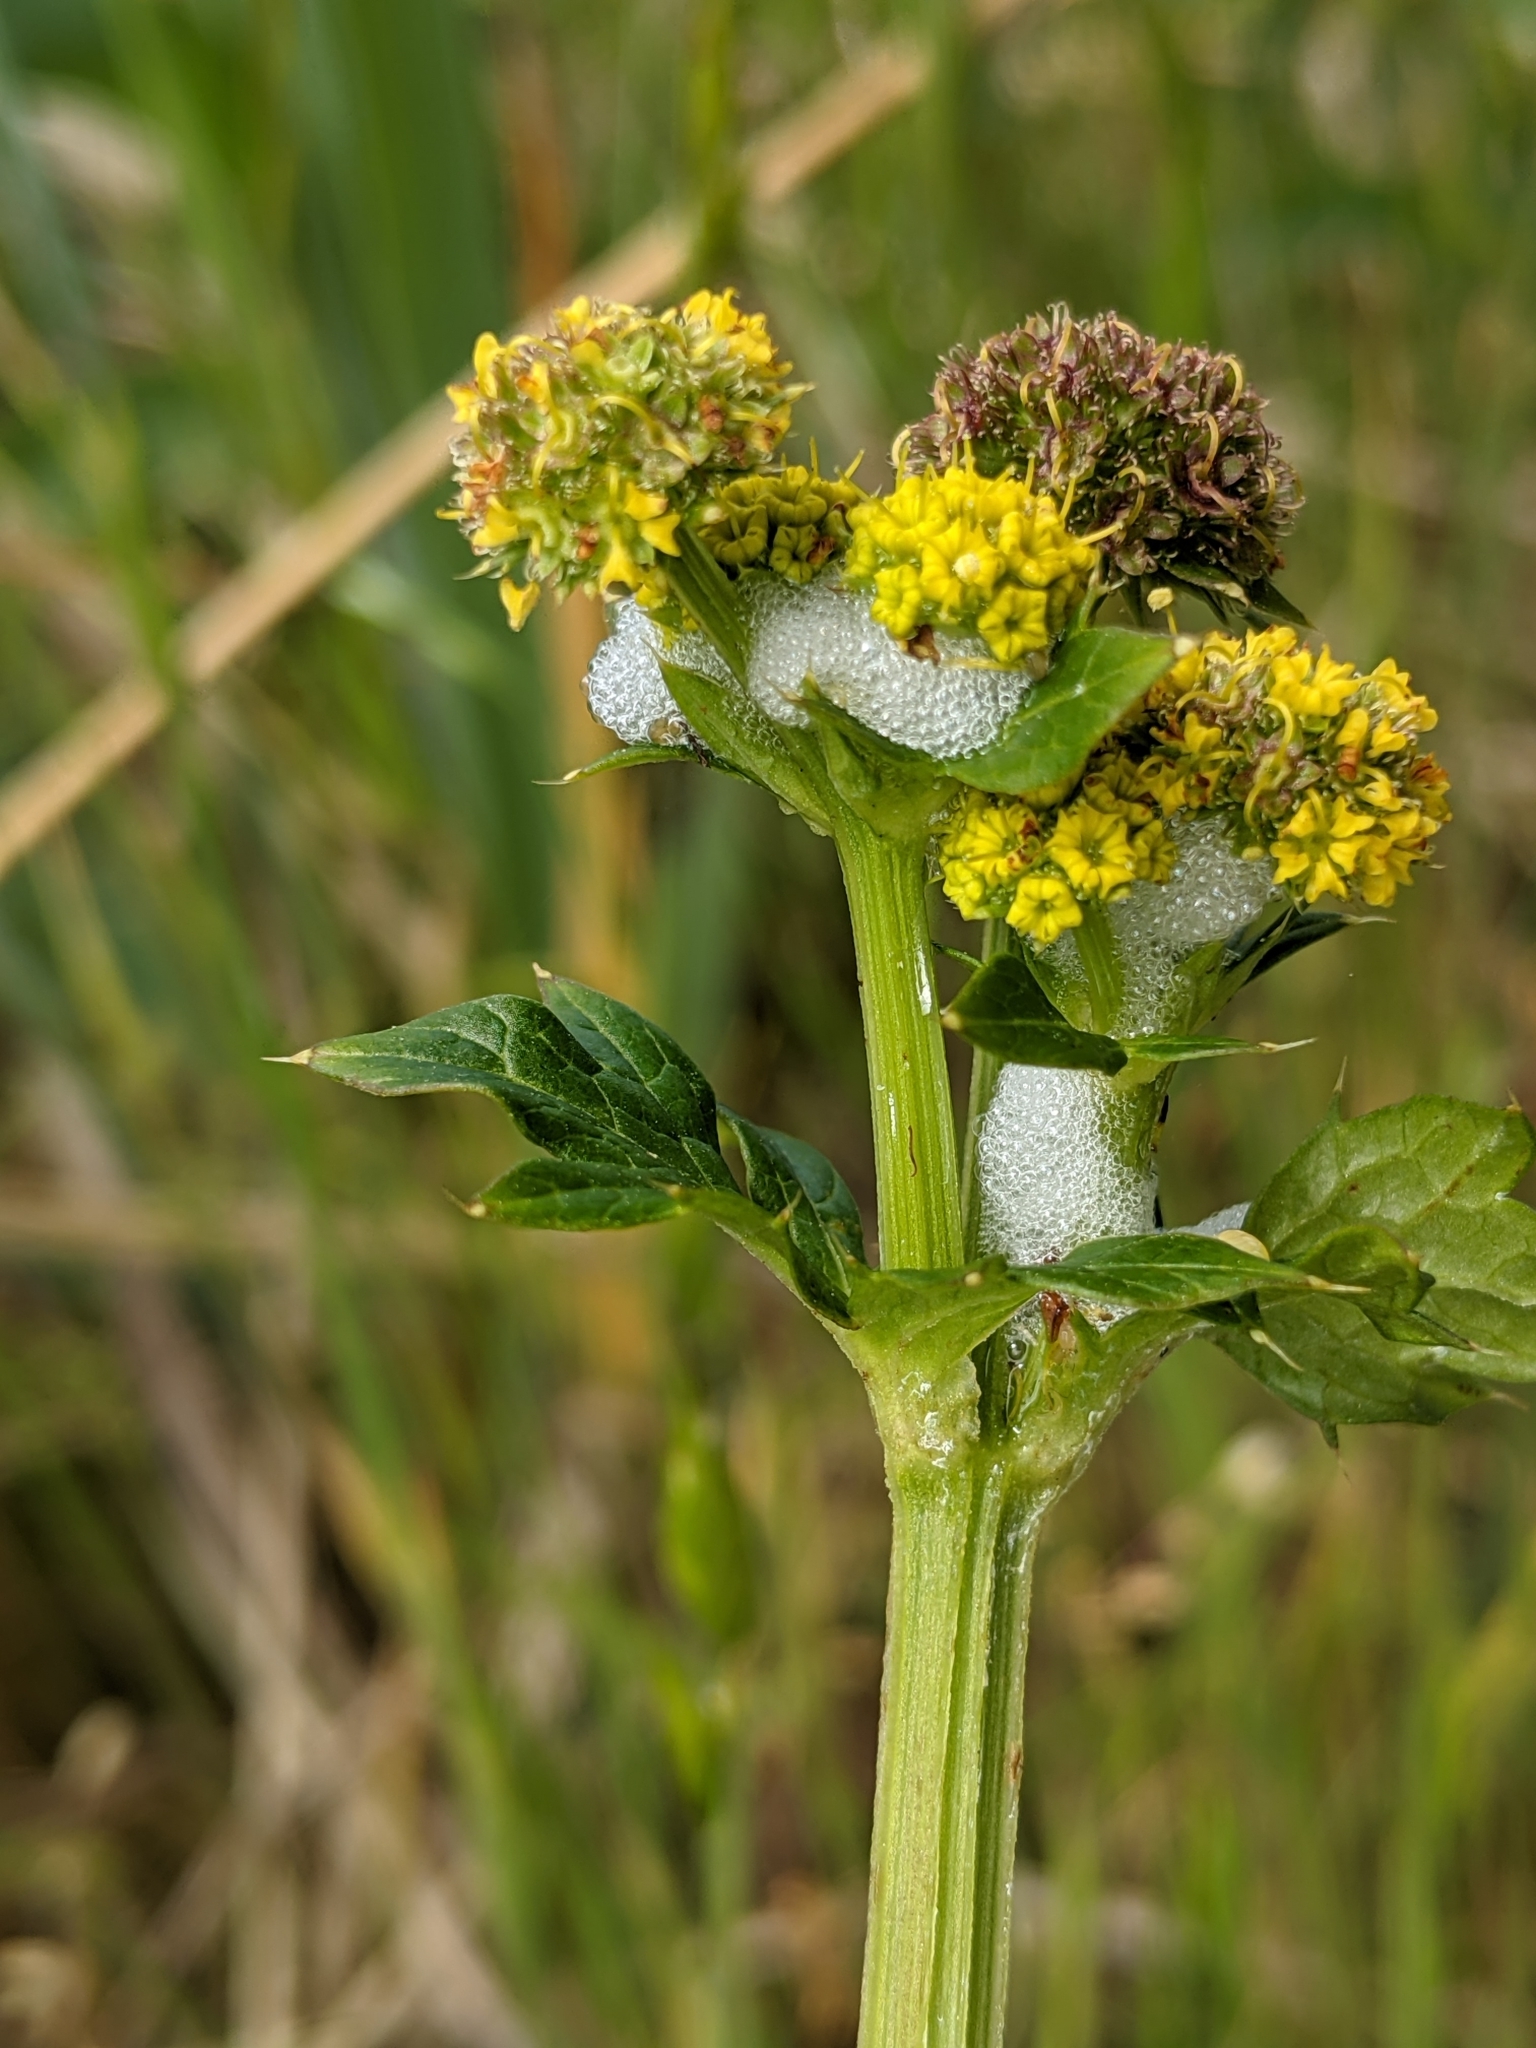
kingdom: Plantae
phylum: Tracheophyta
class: Magnoliopsida
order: Apiales
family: Apiaceae
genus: Sanicula
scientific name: Sanicula crassicaulis
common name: Western snakeroot
